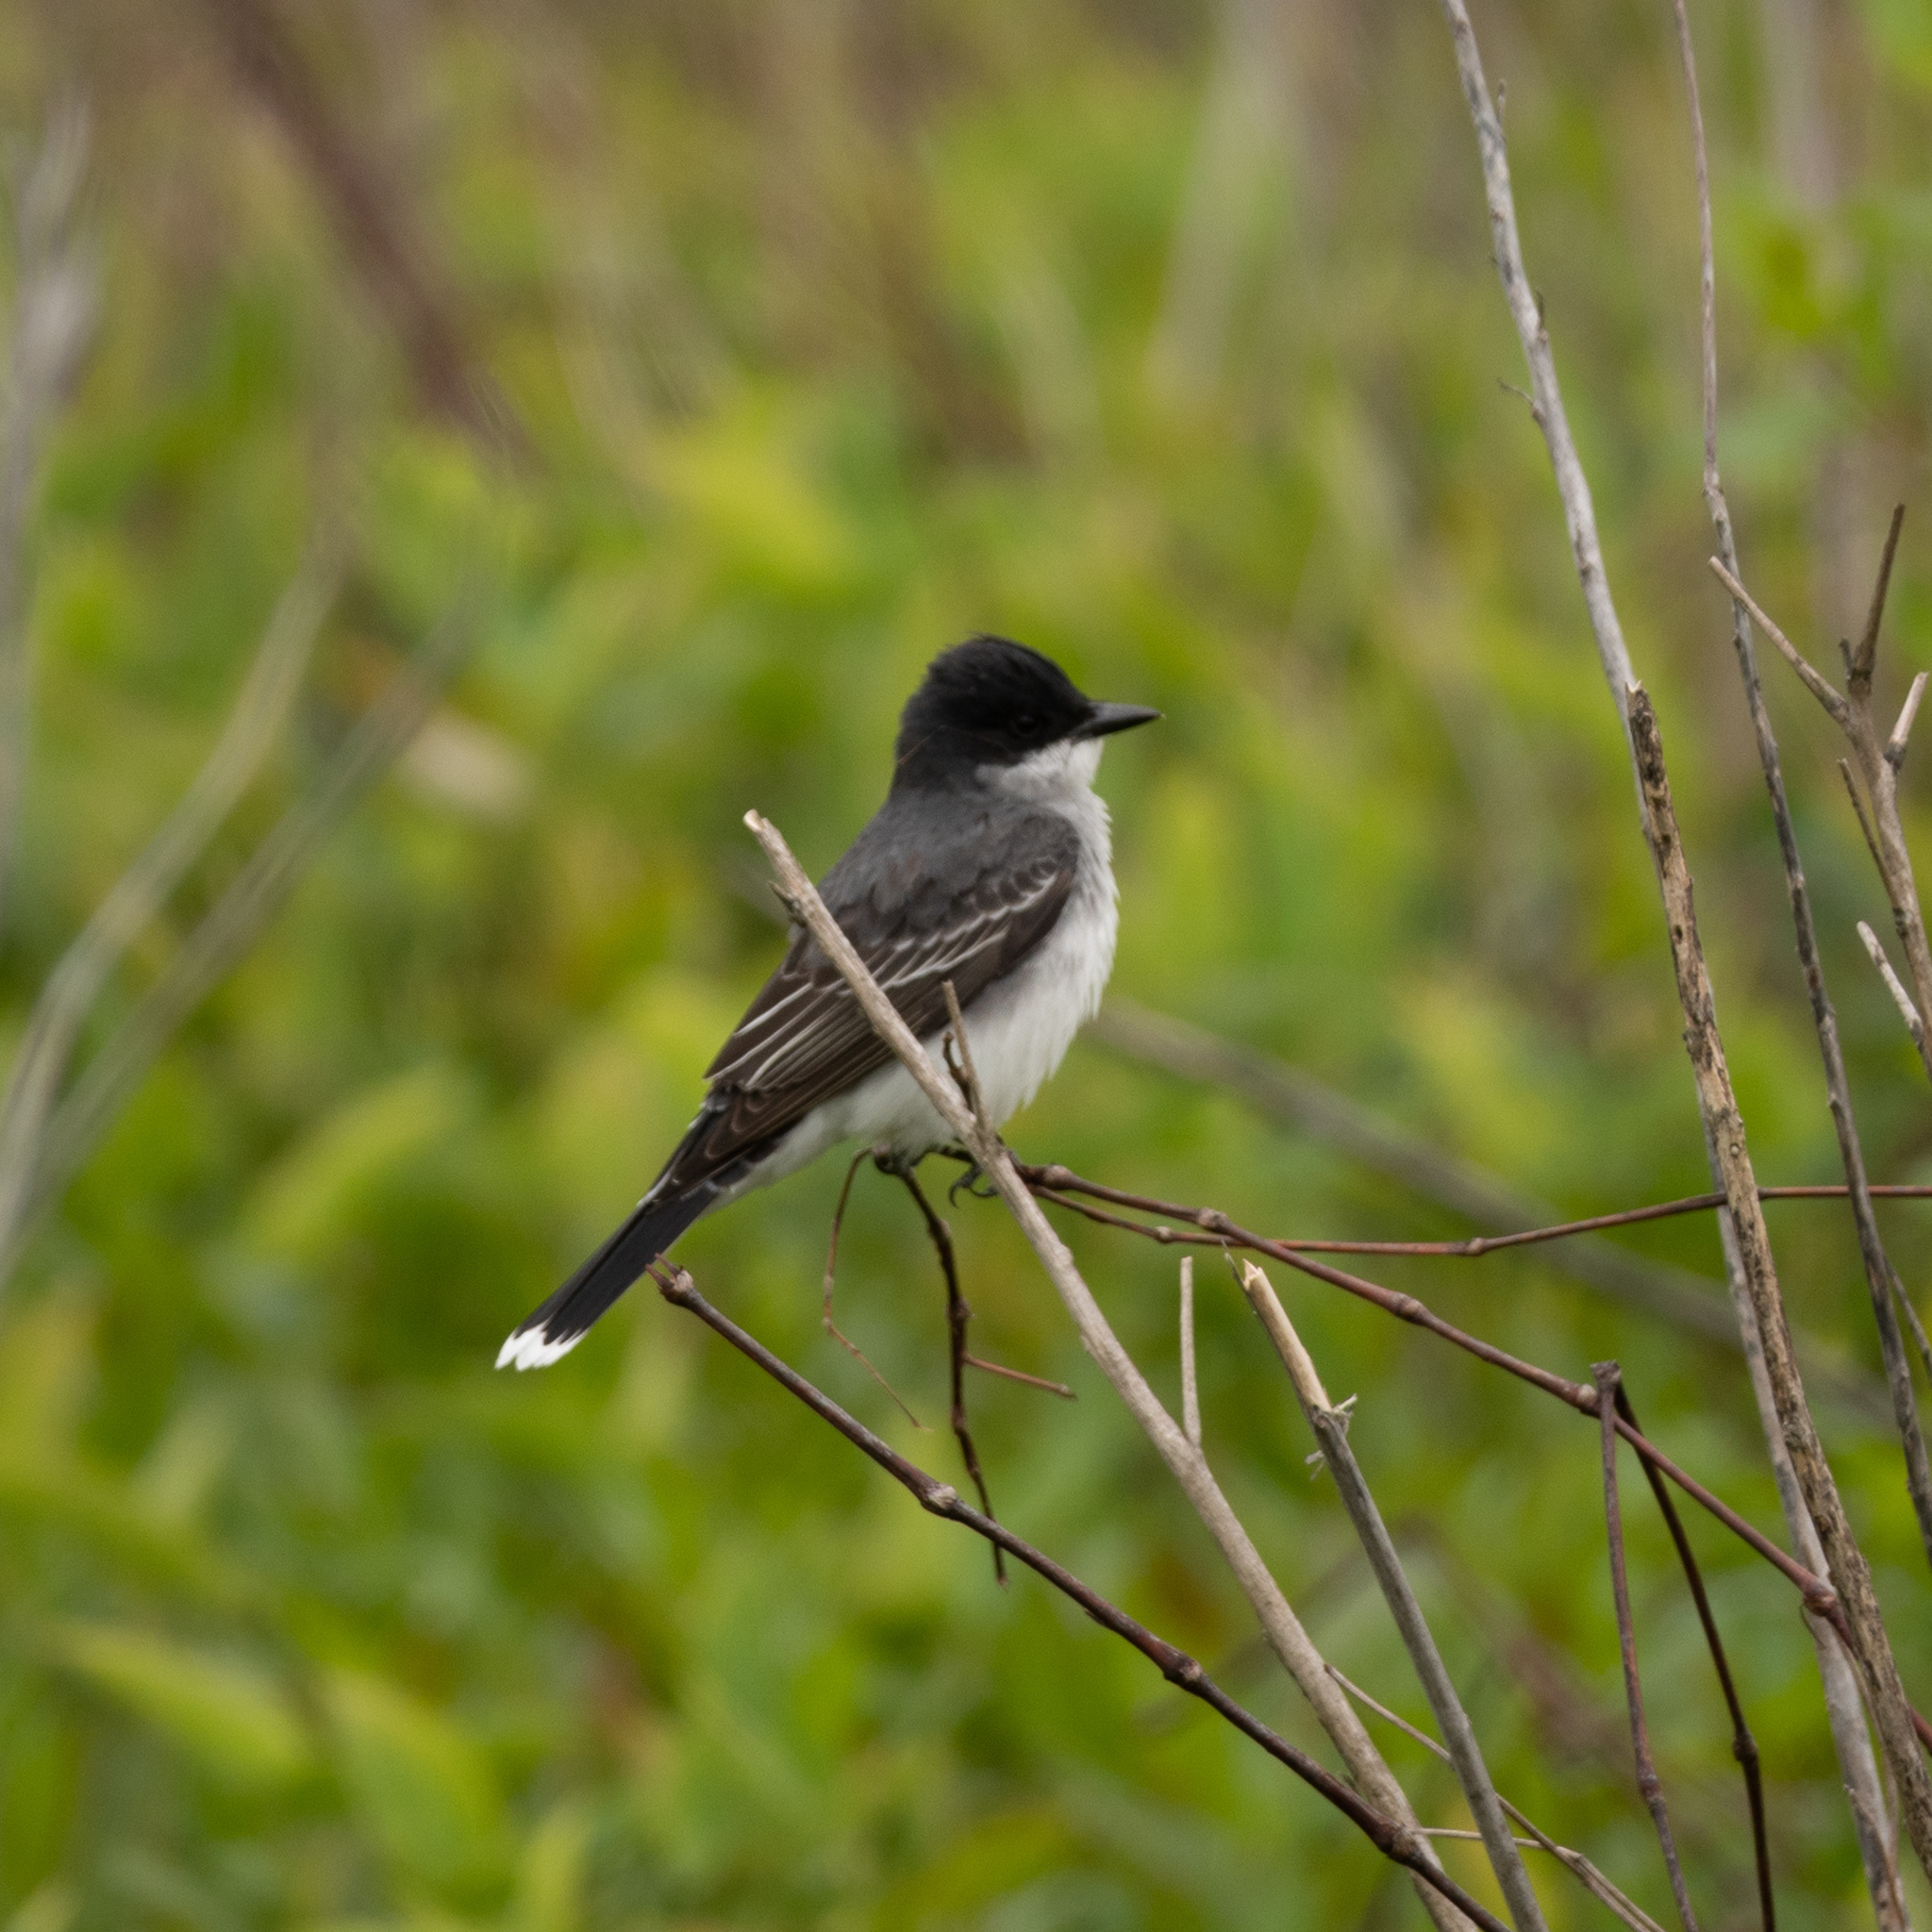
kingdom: Animalia
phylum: Chordata
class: Aves
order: Passeriformes
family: Tyrannidae
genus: Tyrannus
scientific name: Tyrannus tyrannus
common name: Eastern kingbird
